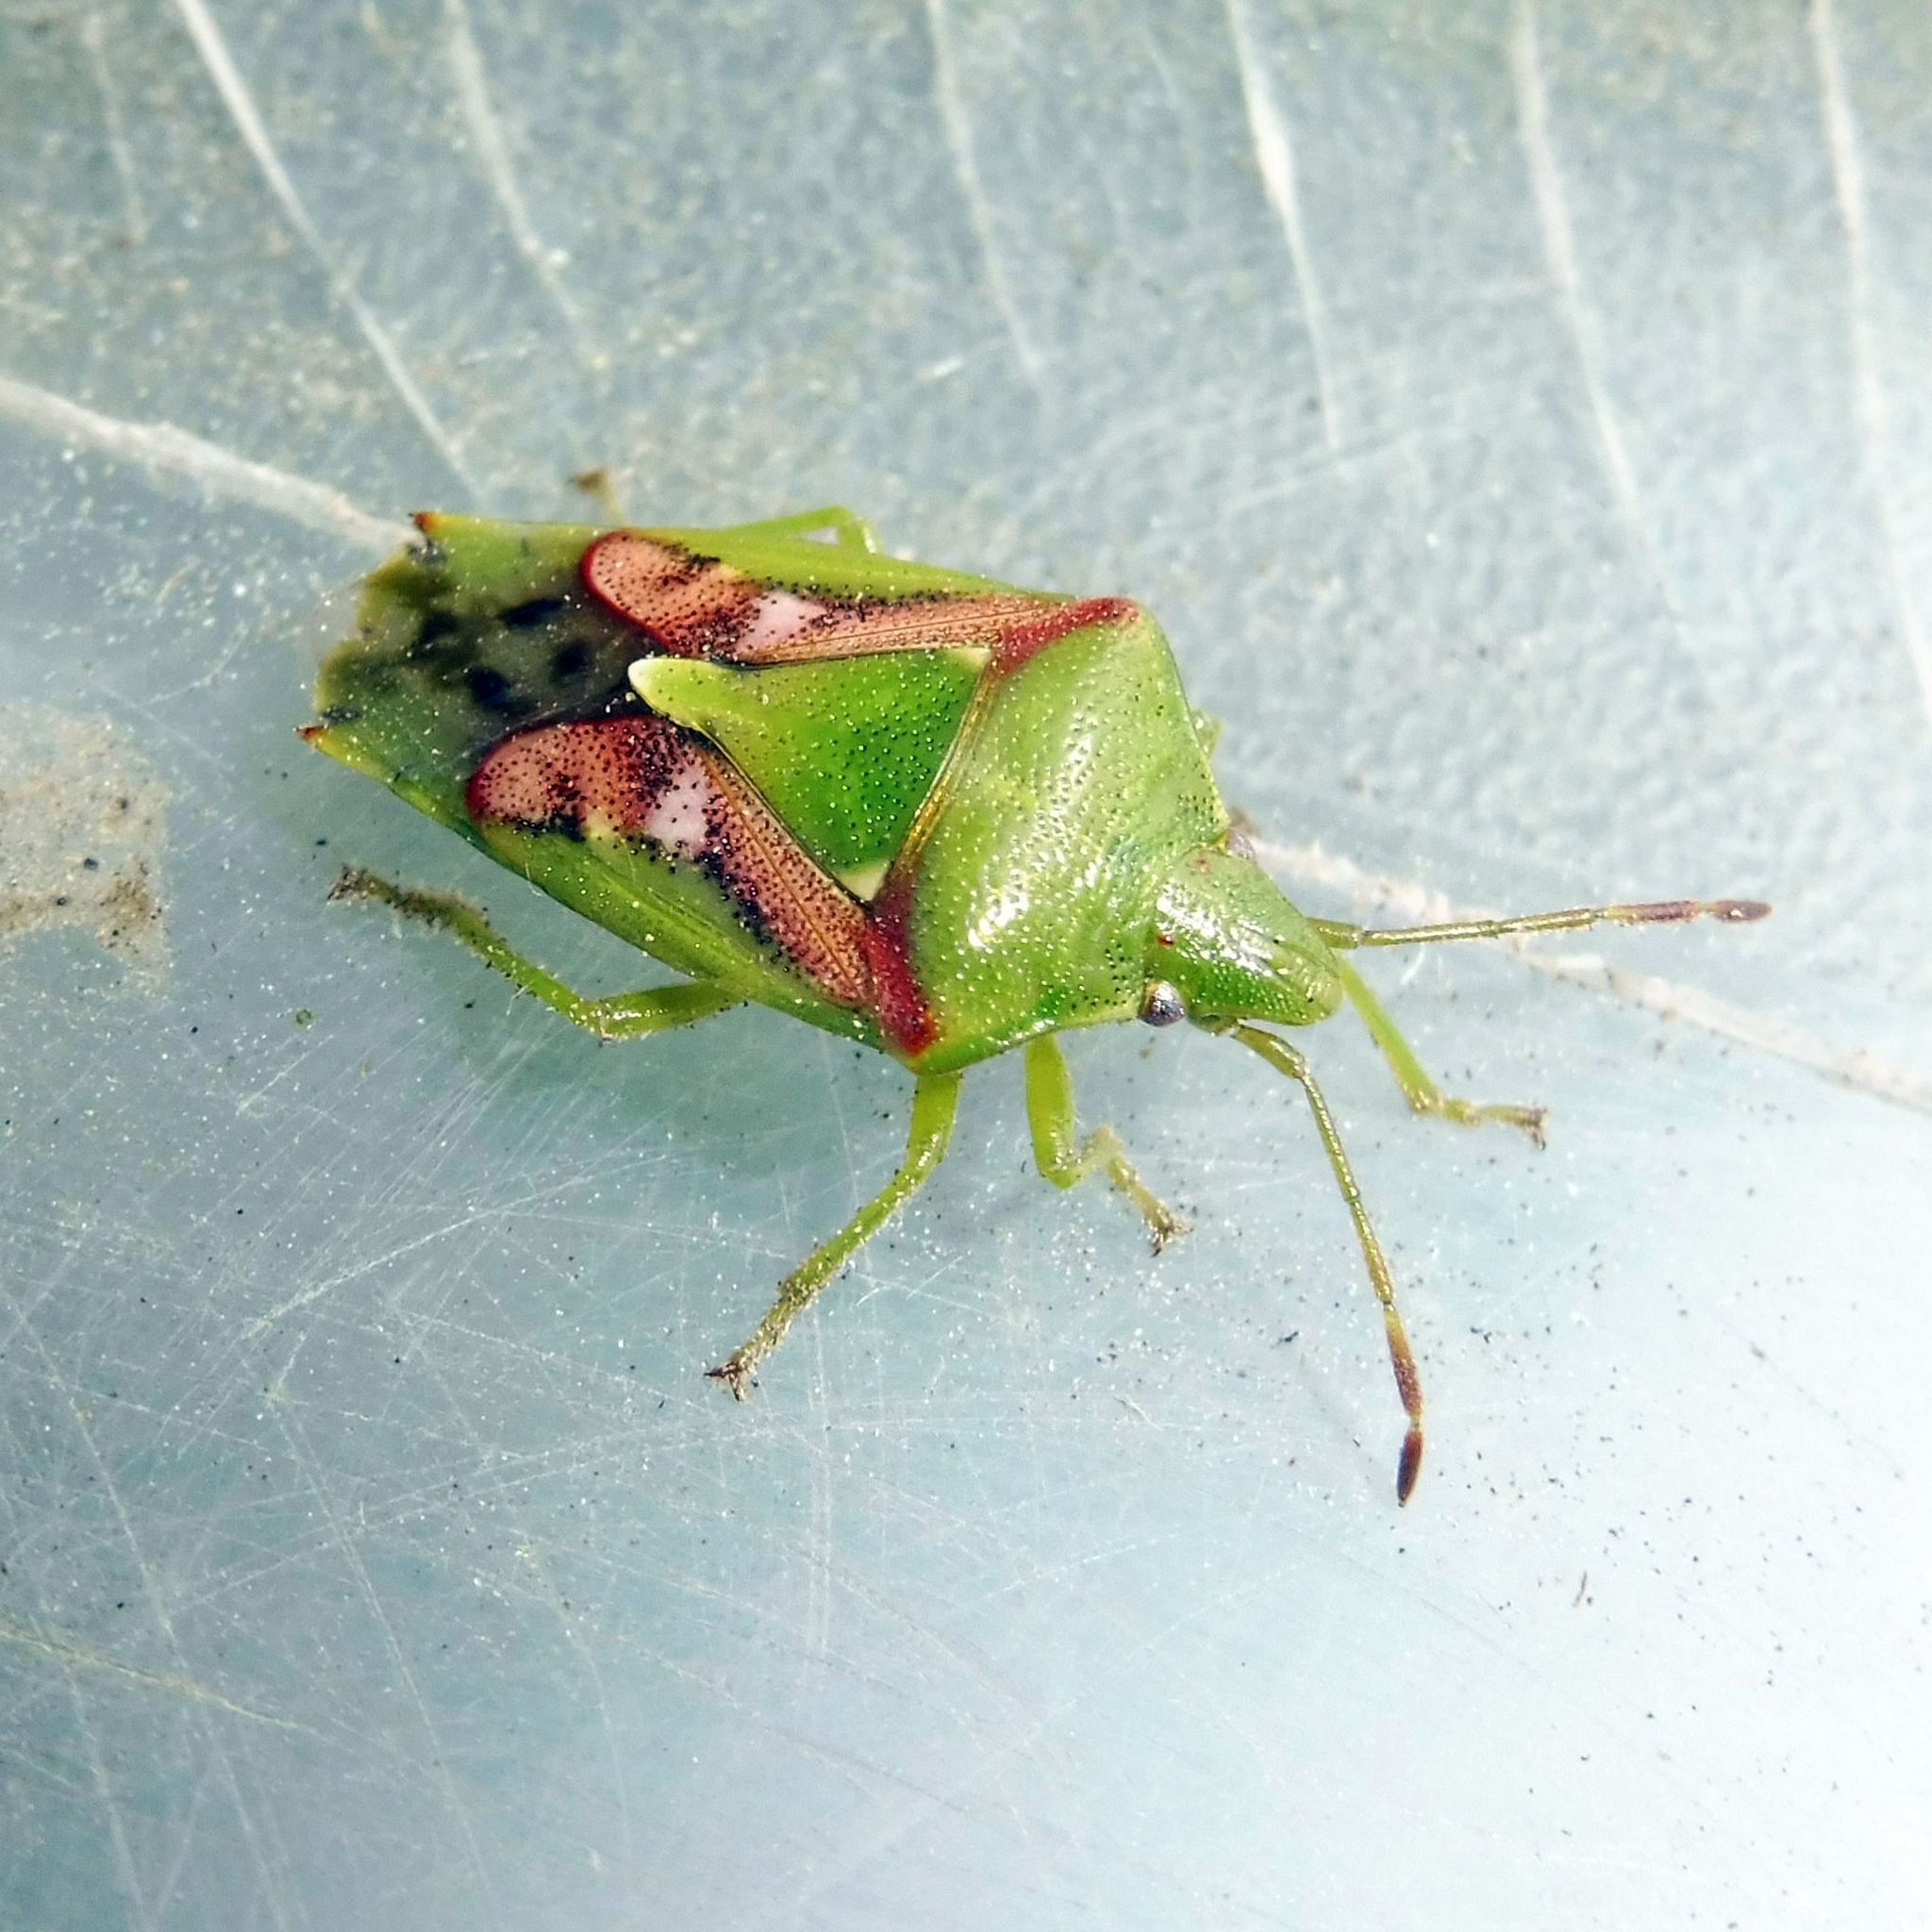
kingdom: Animalia
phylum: Arthropoda
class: Insecta
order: Hemiptera
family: Acanthosomatidae
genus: Cyphostethus
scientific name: Cyphostethus tristriatus
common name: Juniper shieldbug
